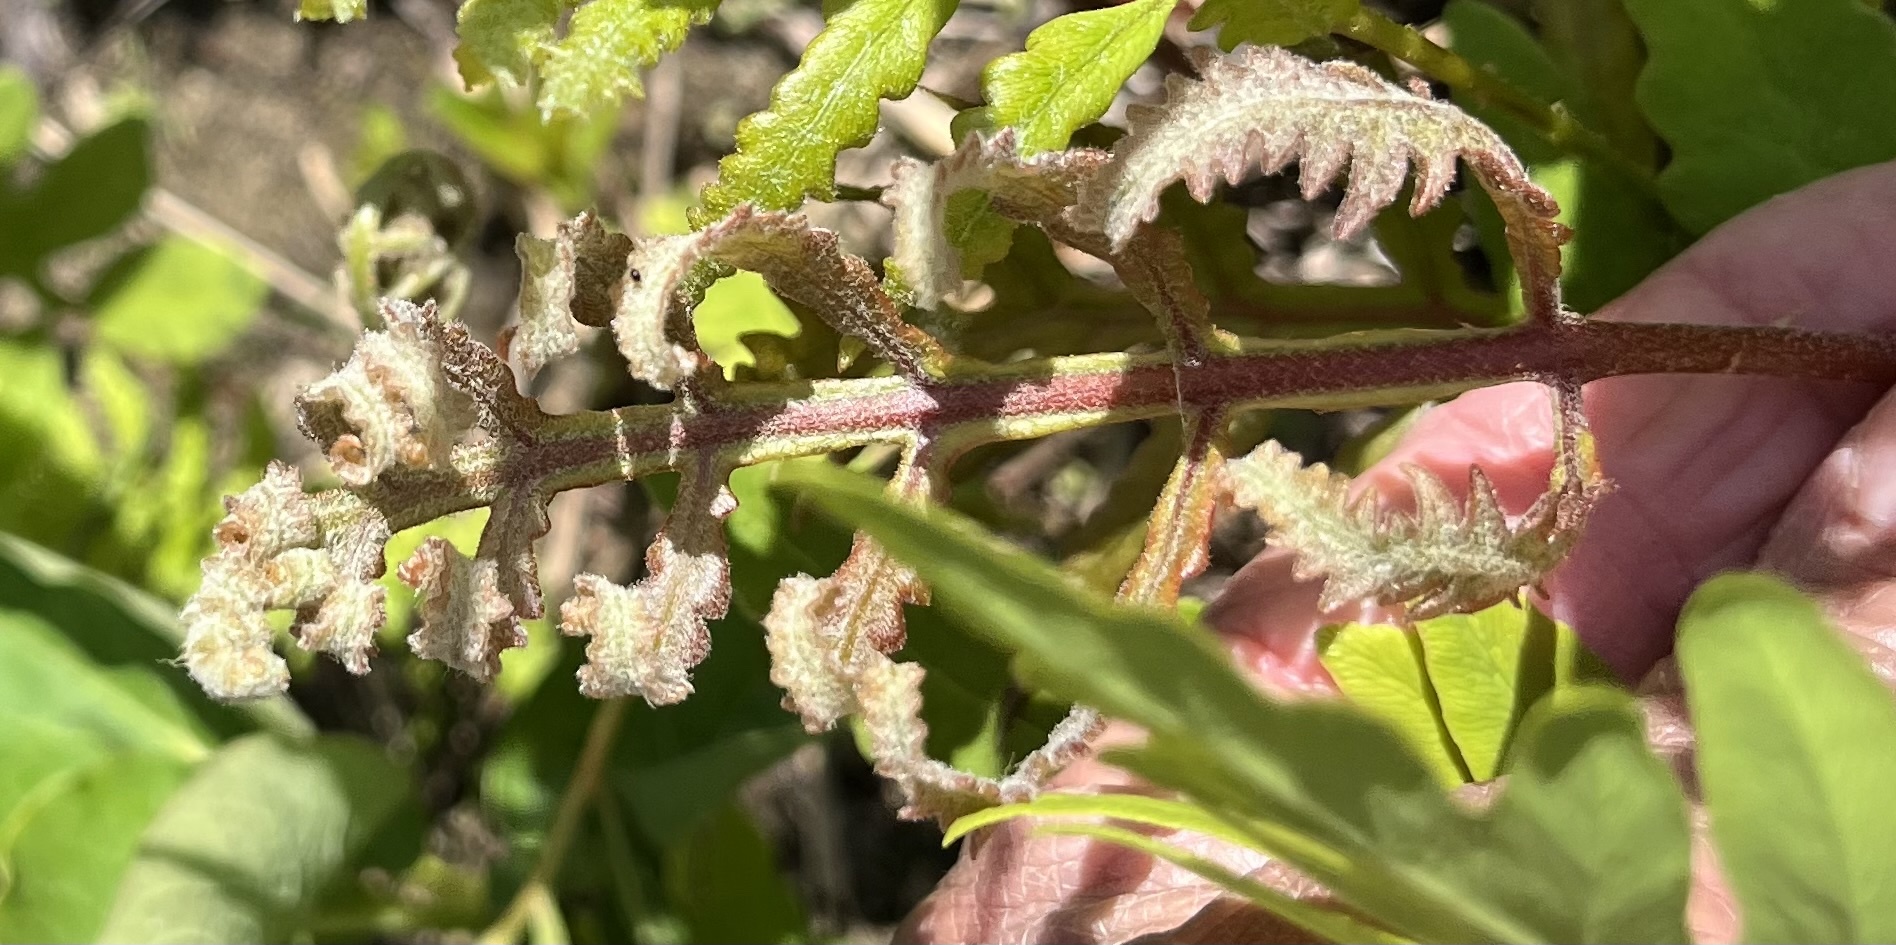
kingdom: Plantae
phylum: Tracheophyta
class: Polypodiopsida
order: Polypodiales
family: Onocleaceae
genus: Onoclea
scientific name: Onoclea sensibilis
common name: Sensitive fern
